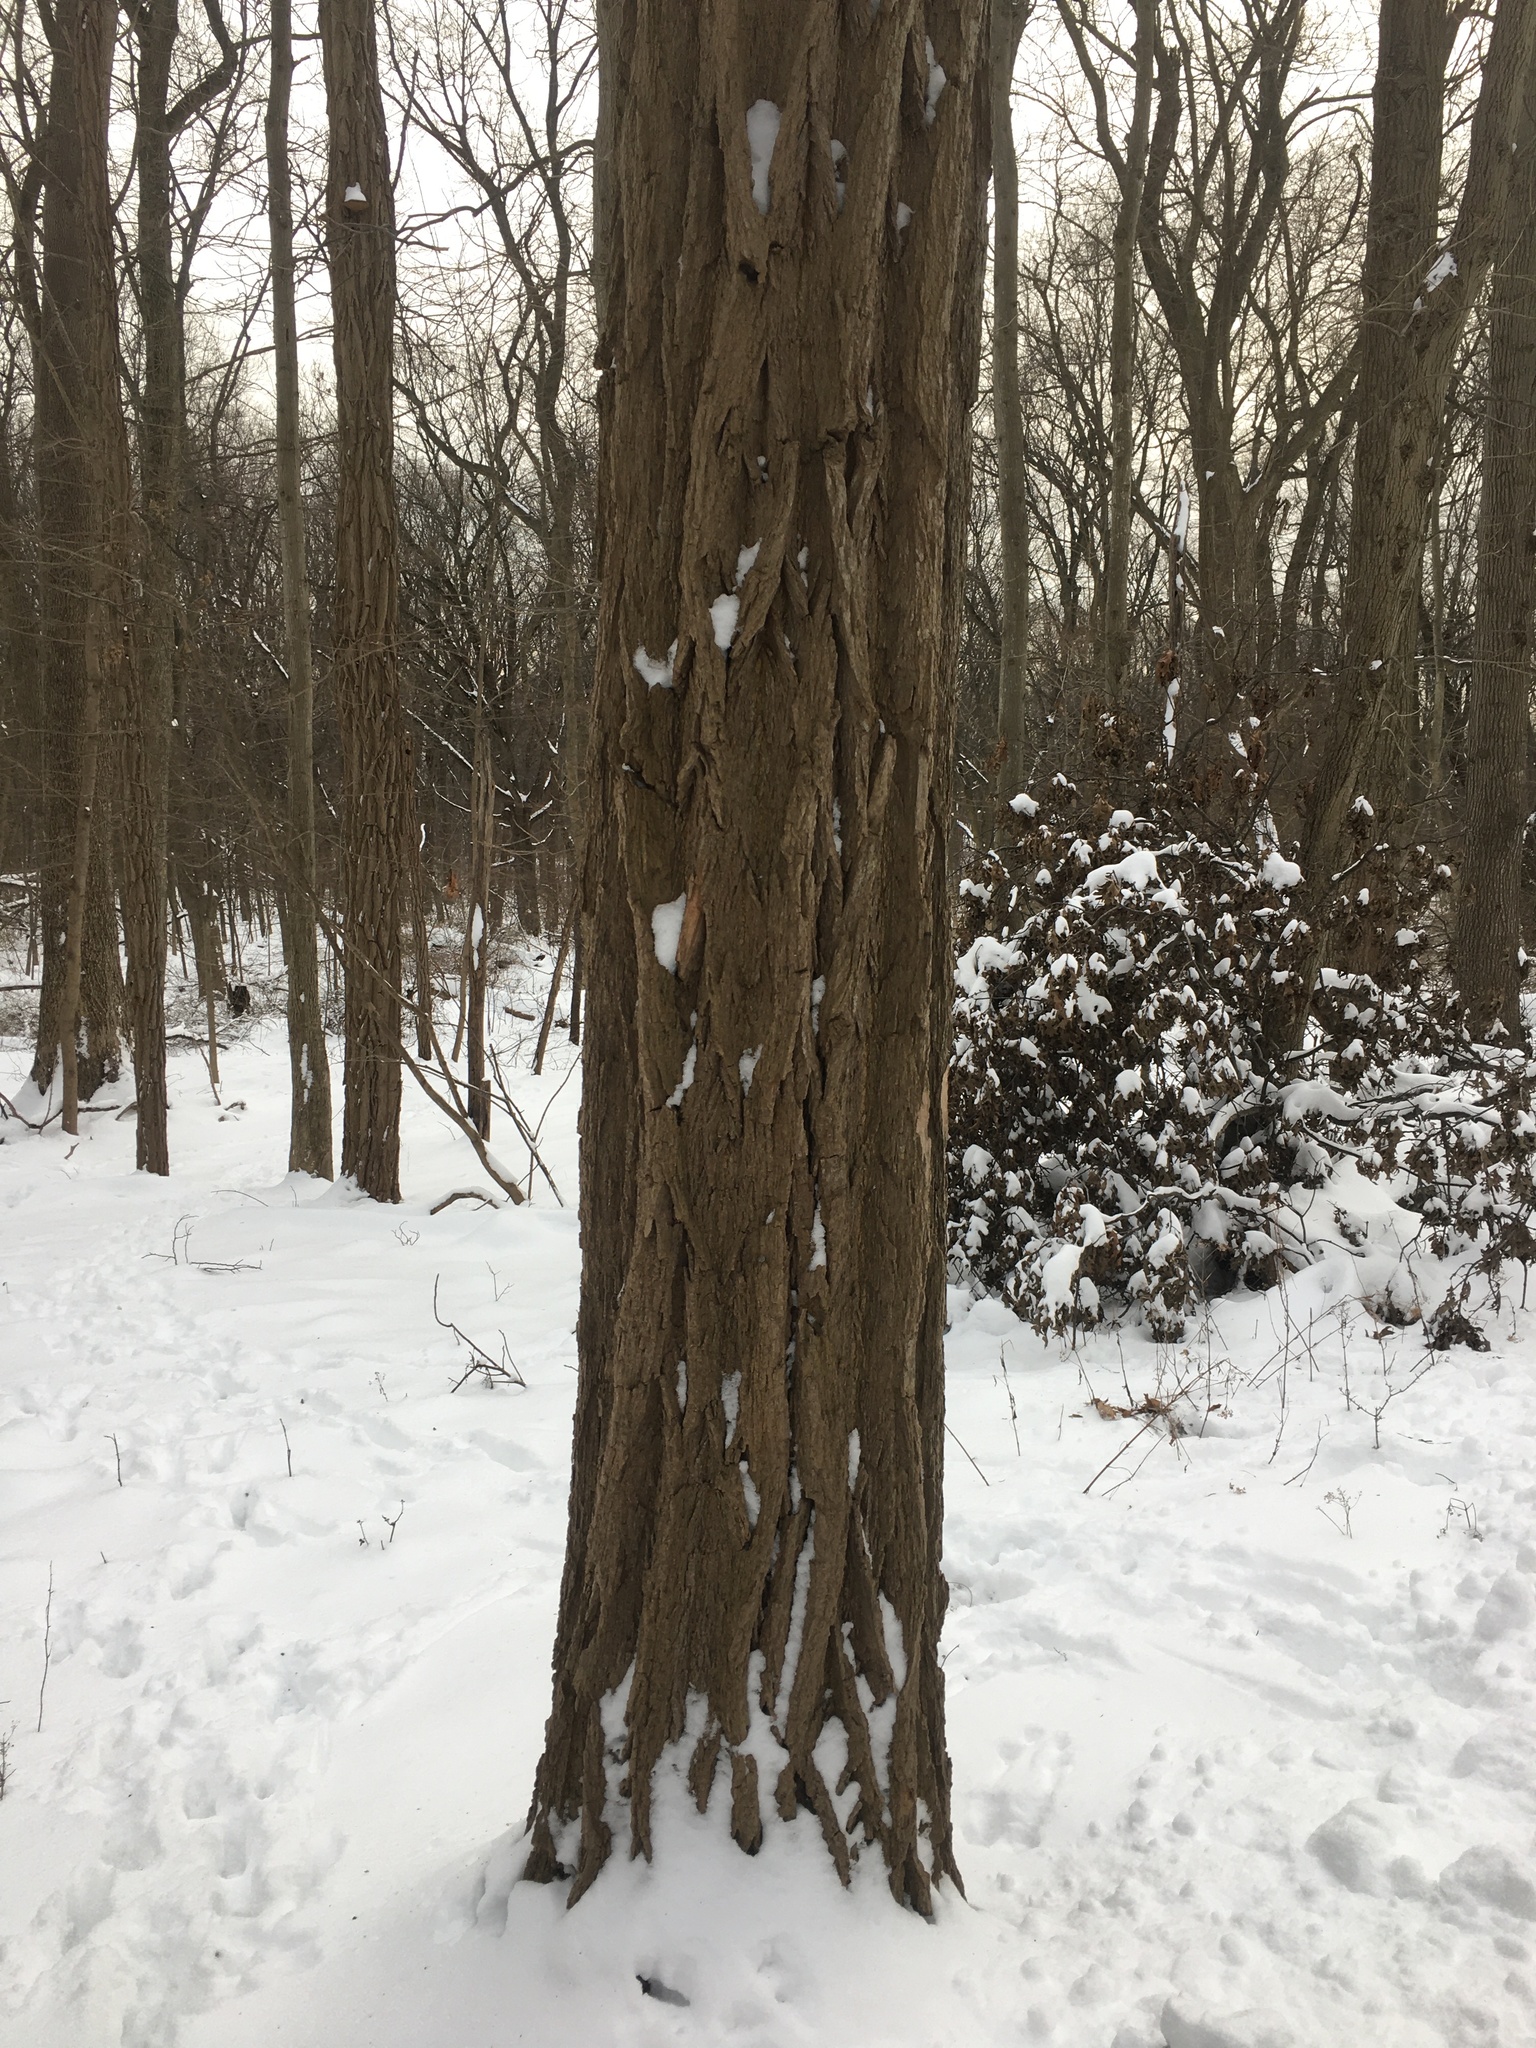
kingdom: Plantae
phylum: Tracheophyta
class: Magnoliopsida
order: Fabales
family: Fabaceae
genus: Robinia
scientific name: Robinia pseudoacacia
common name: Black locust
